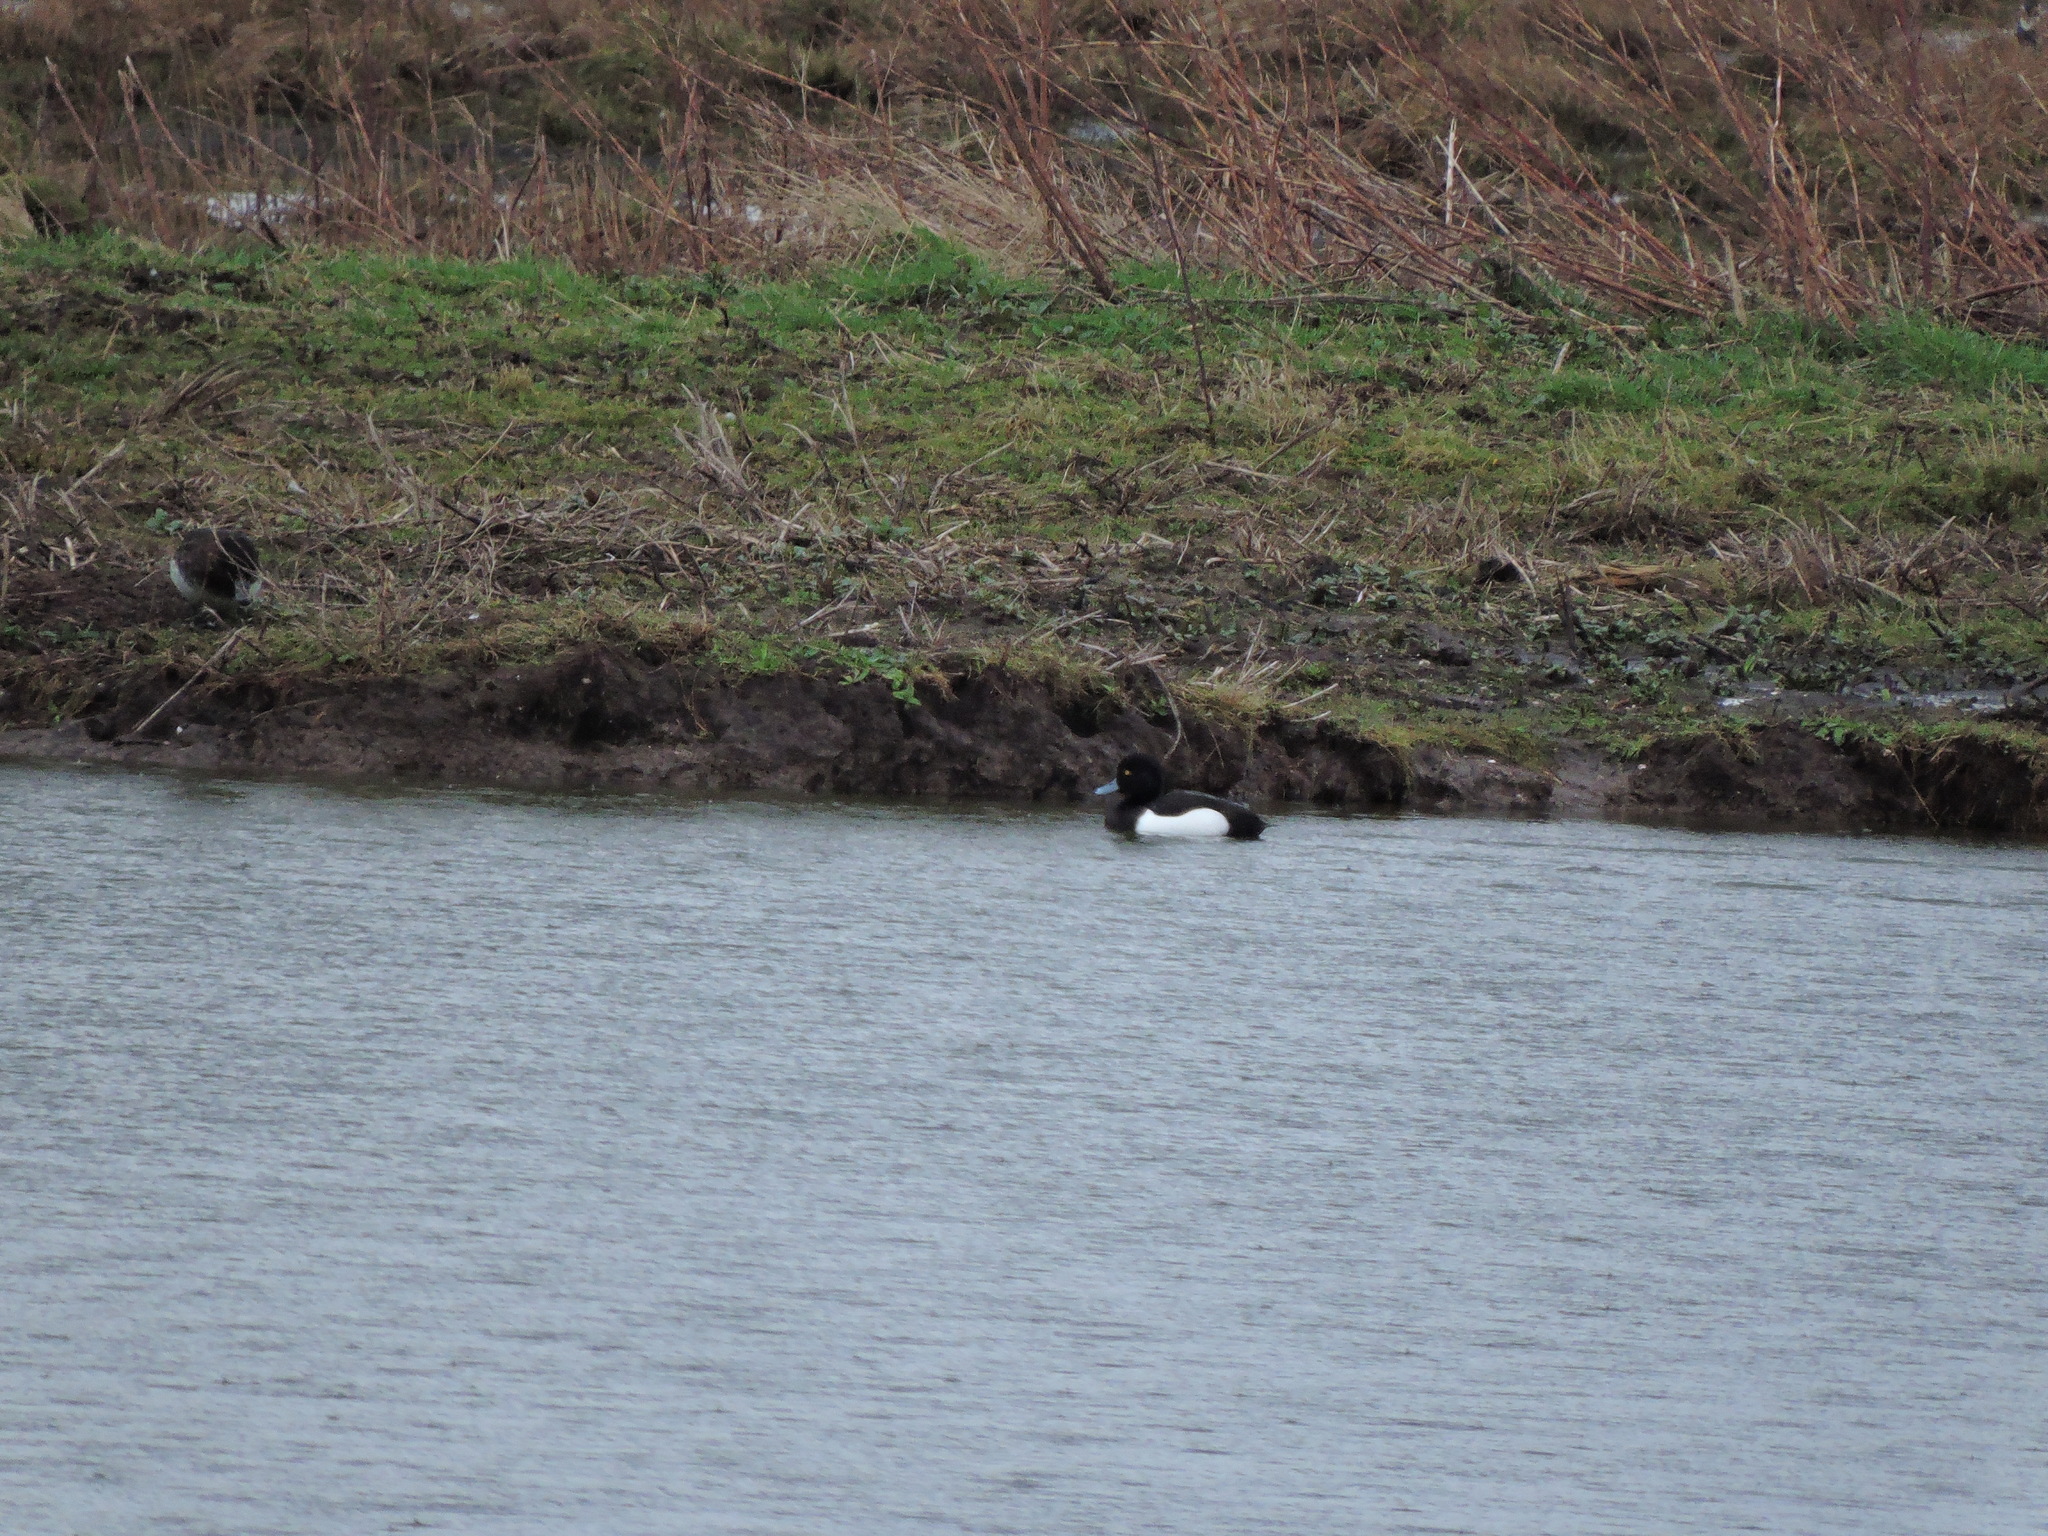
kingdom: Animalia
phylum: Chordata
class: Aves
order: Anseriformes
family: Anatidae
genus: Aythya
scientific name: Aythya fuligula
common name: Tufted duck
